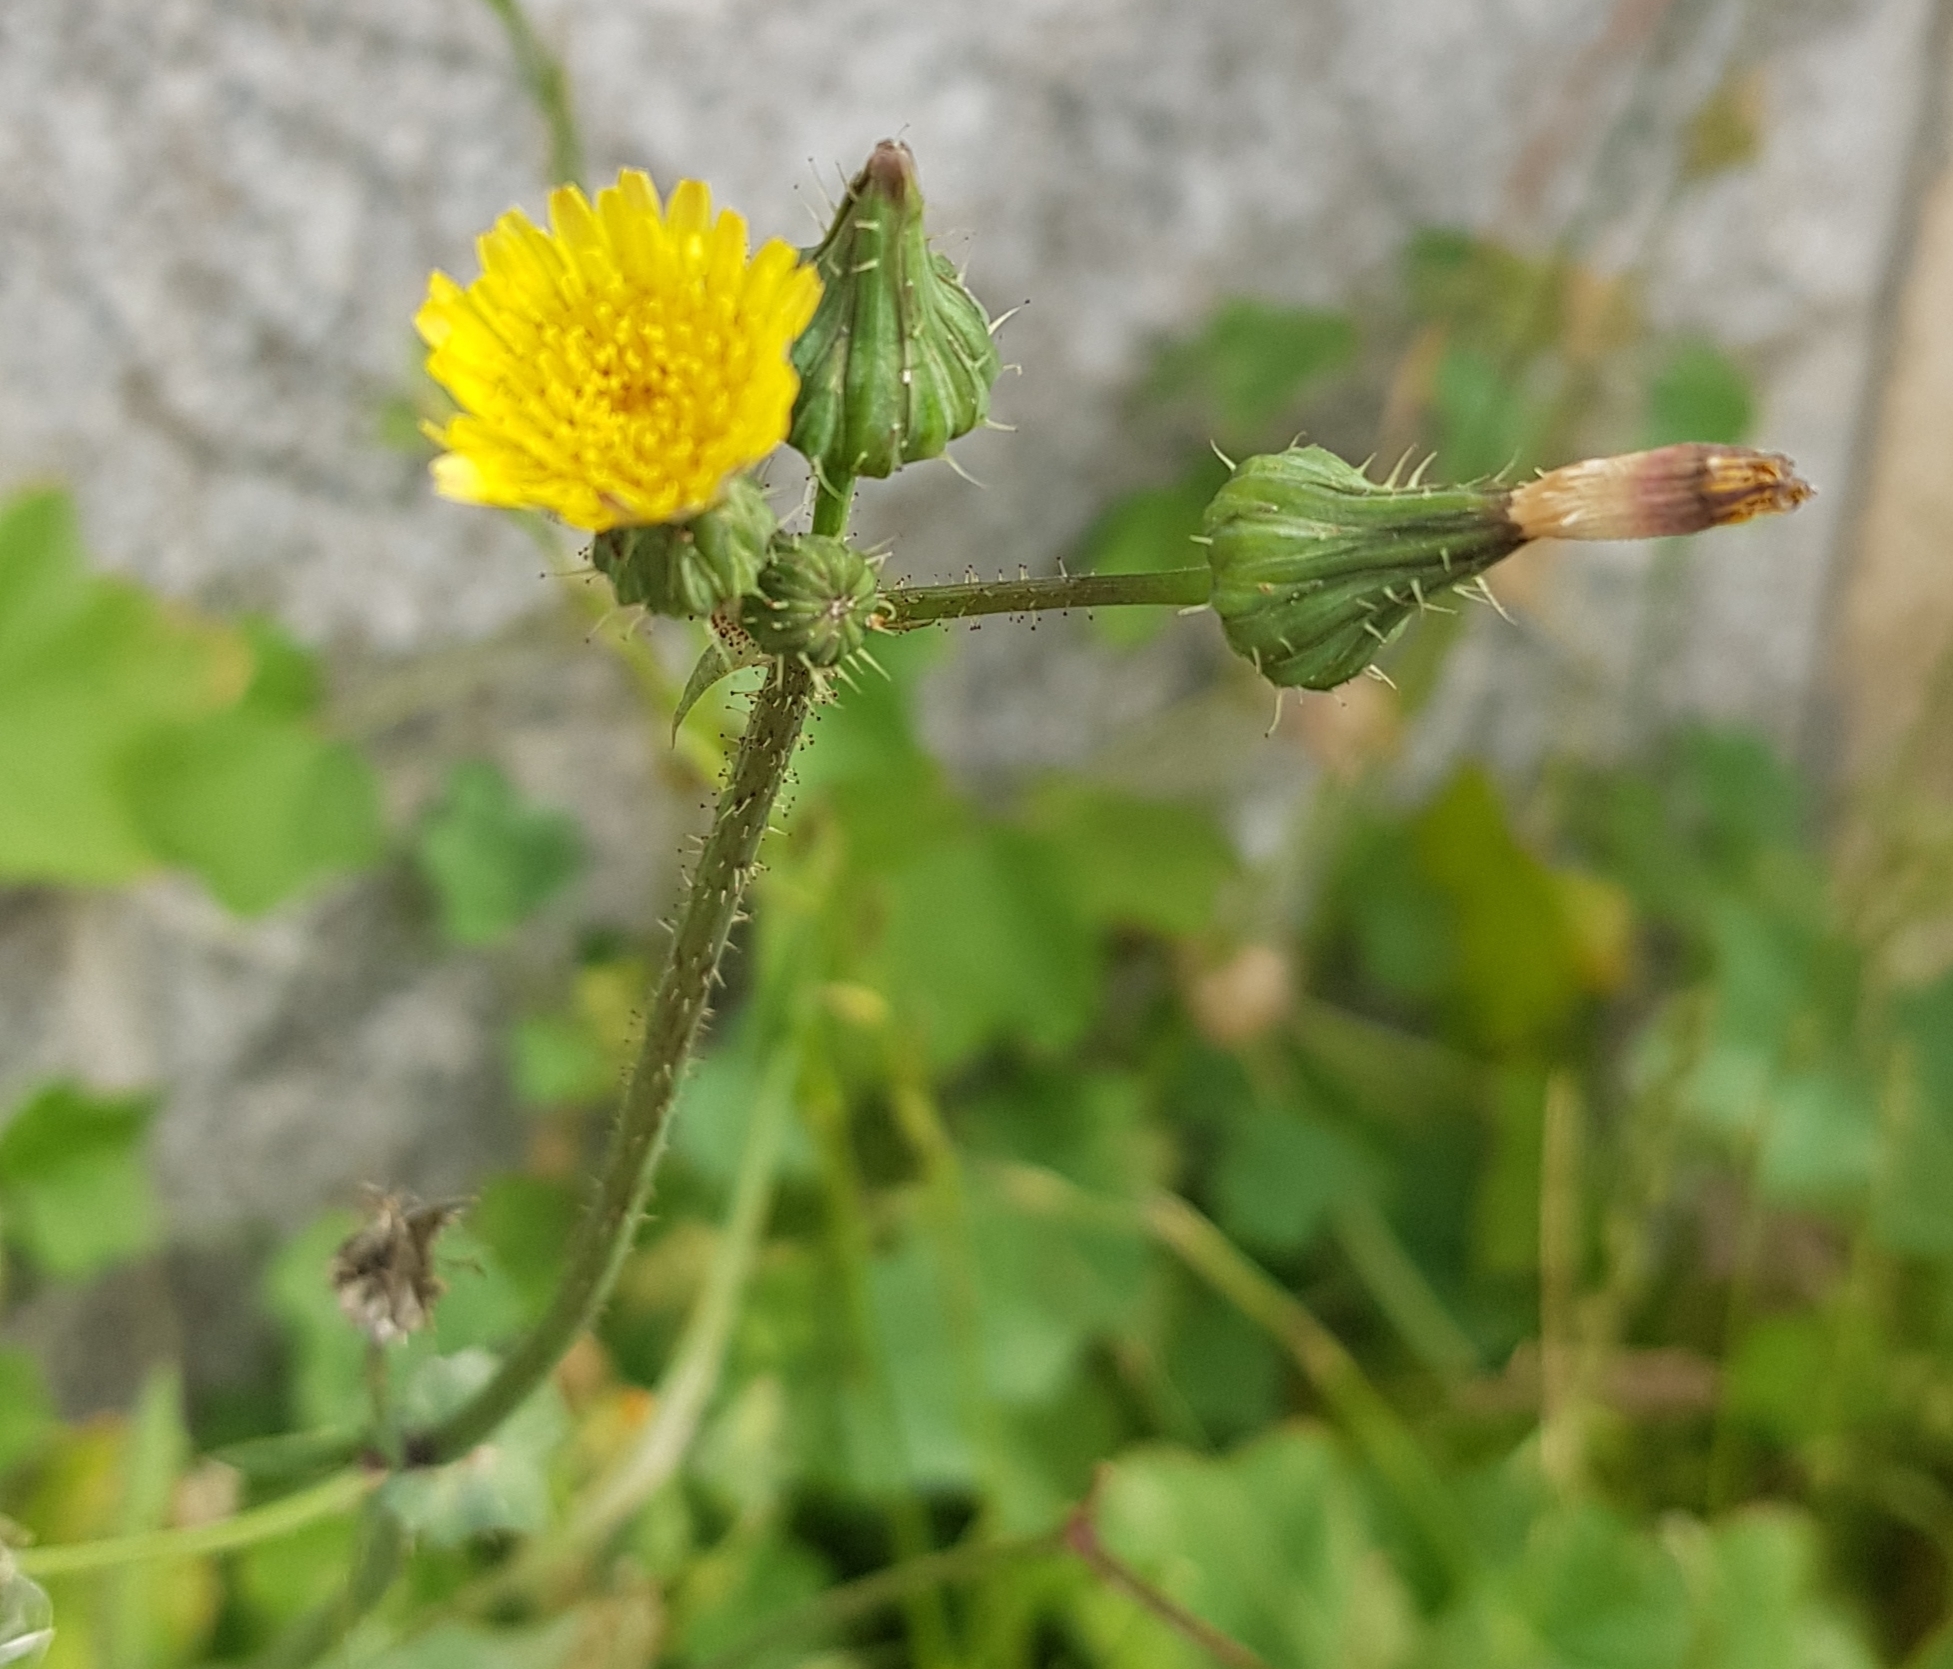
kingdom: Plantae
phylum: Tracheophyta
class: Magnoliopsida
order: Asterales
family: Asteraceae
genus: Sonchus
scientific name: Sonchus arvensis
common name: Perennial sow-thistle
